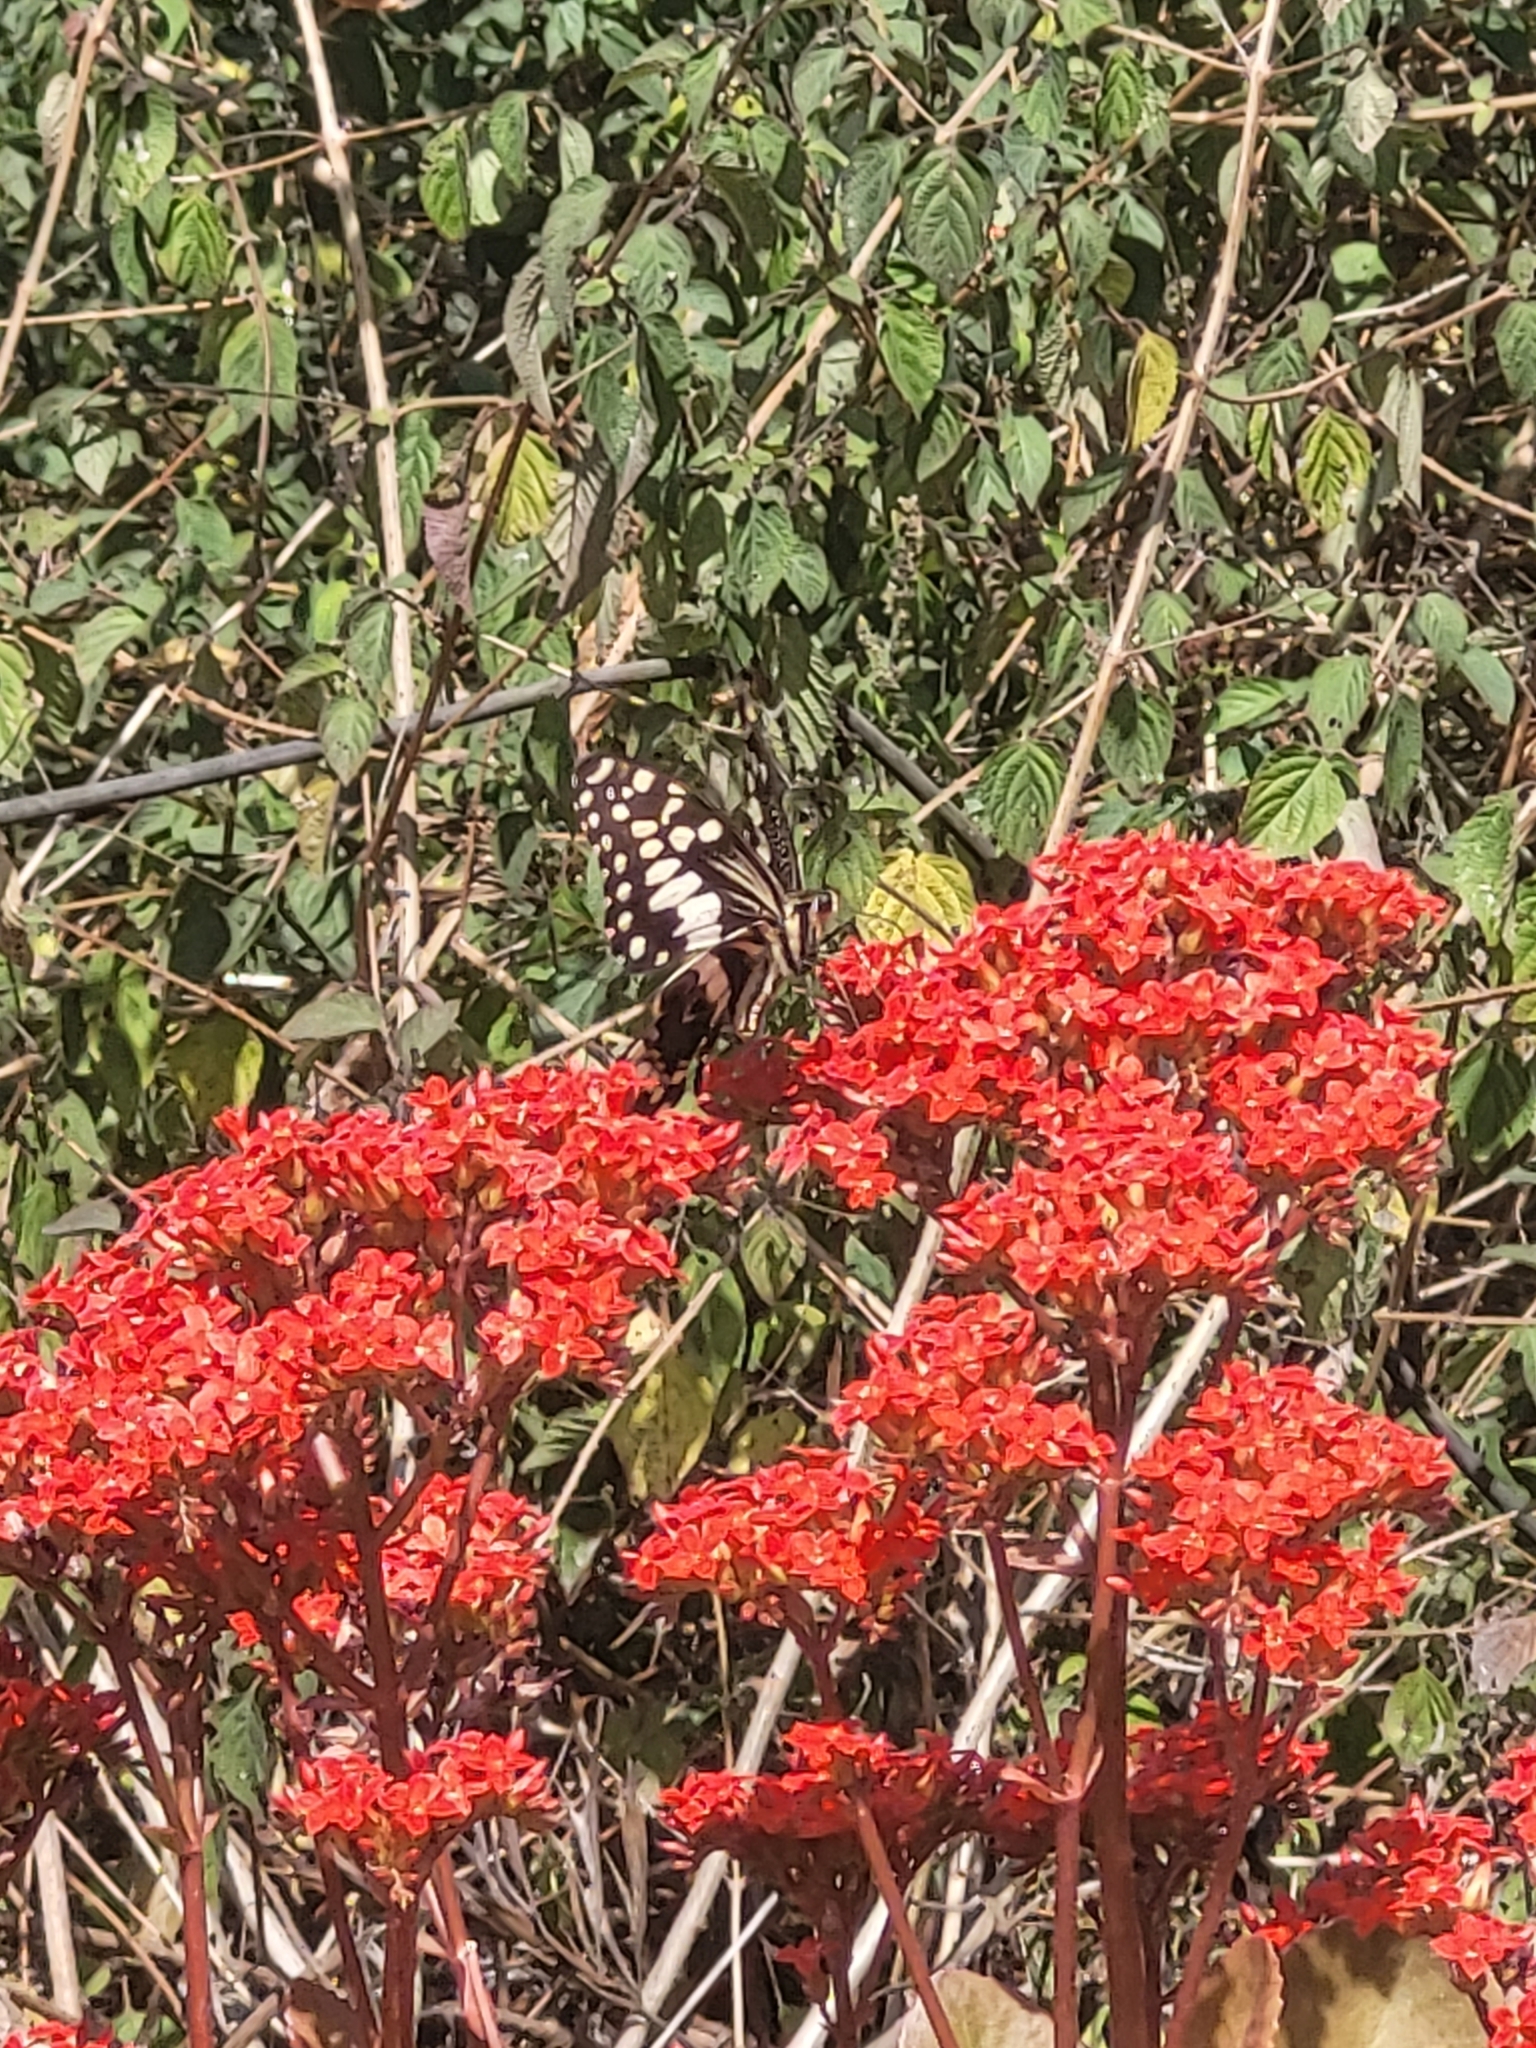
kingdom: Animalia
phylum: Arthropoda
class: Insecta
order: Lepidoptera
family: Papilionidae
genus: Papilio
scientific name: Papilio demodocus
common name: Christmas butterfly
